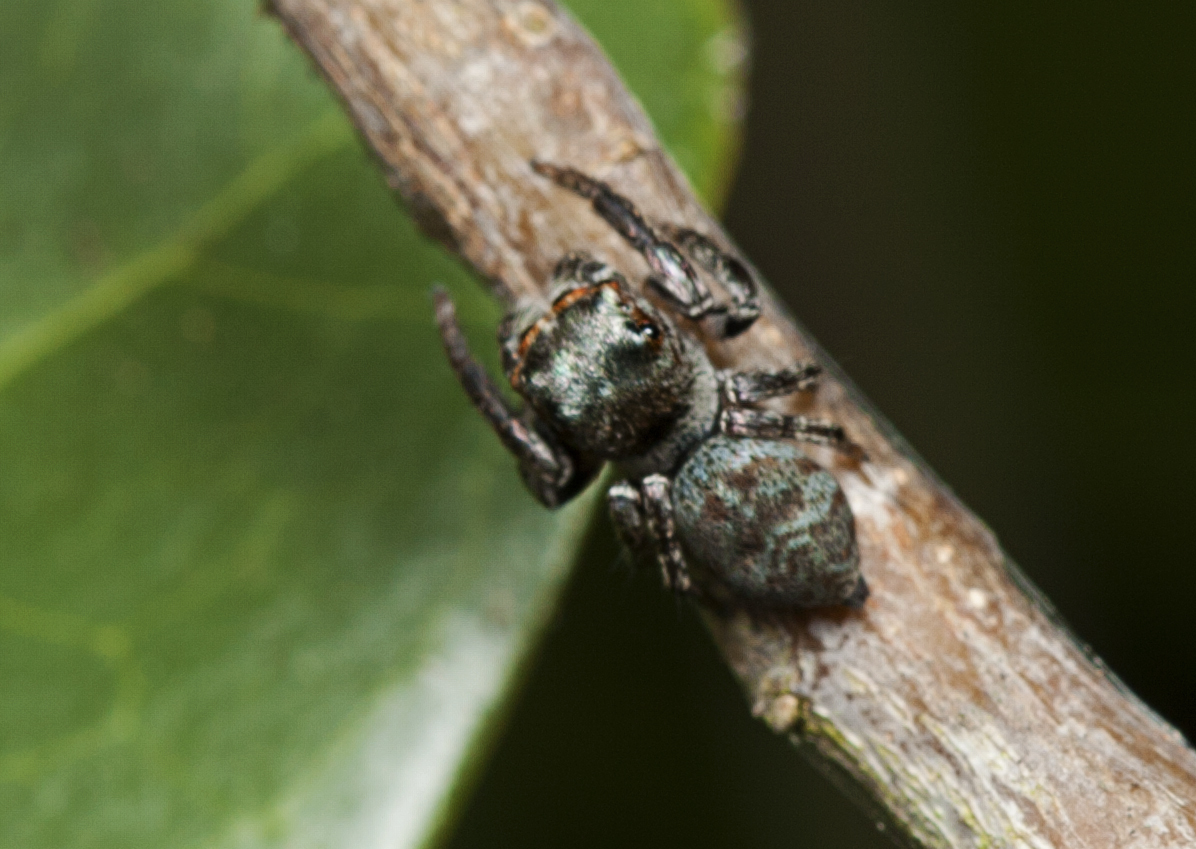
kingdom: Animalia
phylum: Arthropoda
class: Arachnida
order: Araneae
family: Salticidae
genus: Euryattus
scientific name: Euryattus bleekeri
